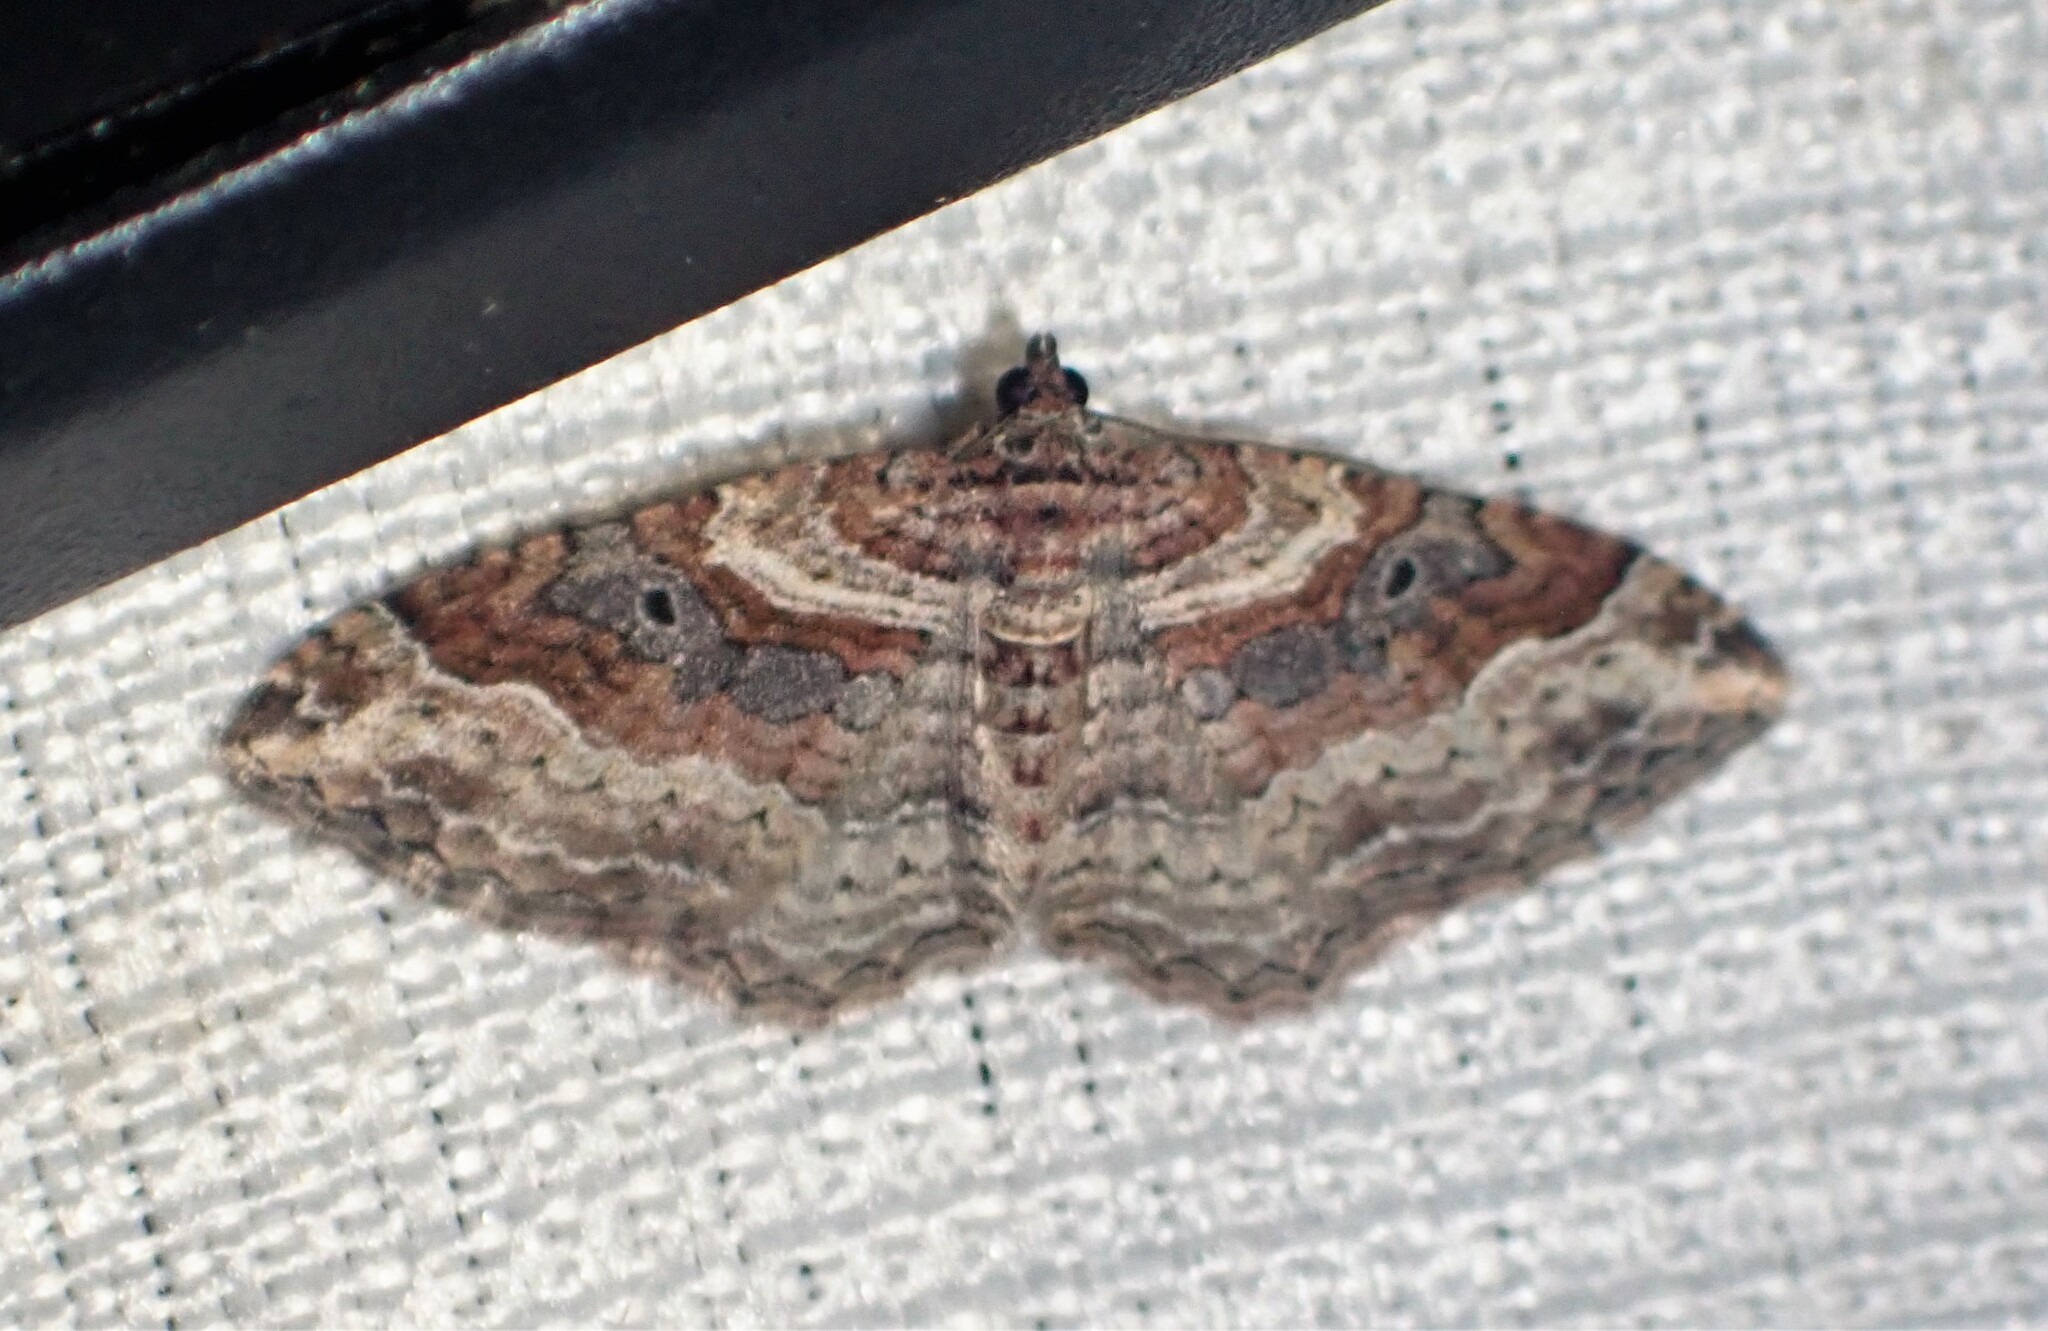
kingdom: Animalia
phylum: Arthropoda
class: Insecta
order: Lepidoptera
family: Geometridae
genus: Costaconvexa
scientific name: Costaconvexa centrostrigaria
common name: Bent-line carpet
